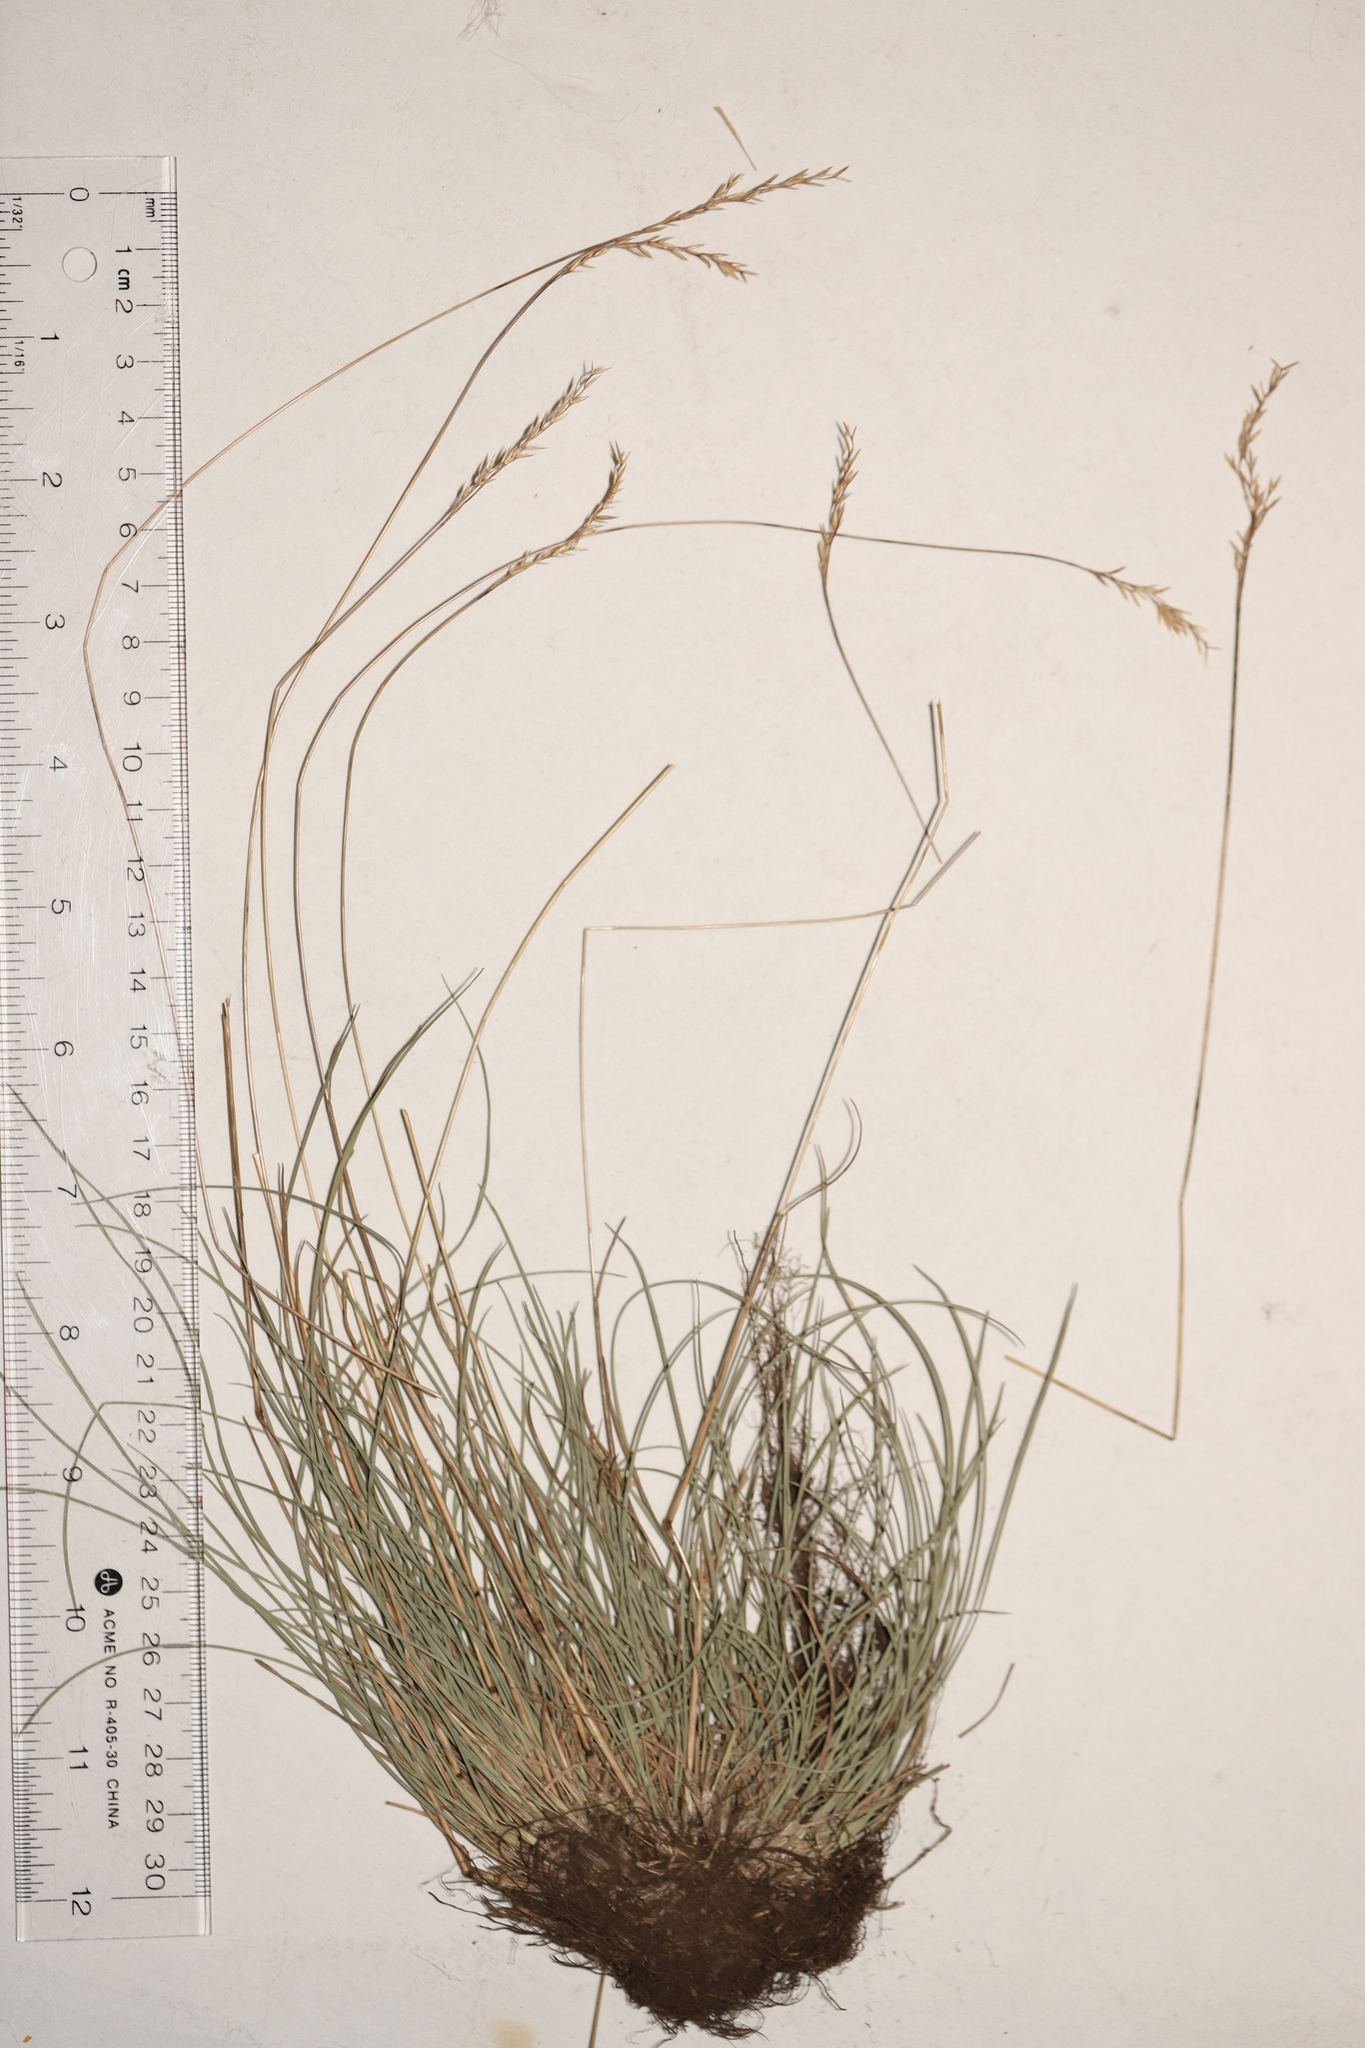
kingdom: Plantae
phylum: Tracheophyta
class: Liliopsida
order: Poales
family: Poaceae
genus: Festuca
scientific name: Festuca saximontana
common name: Mountain fescue
